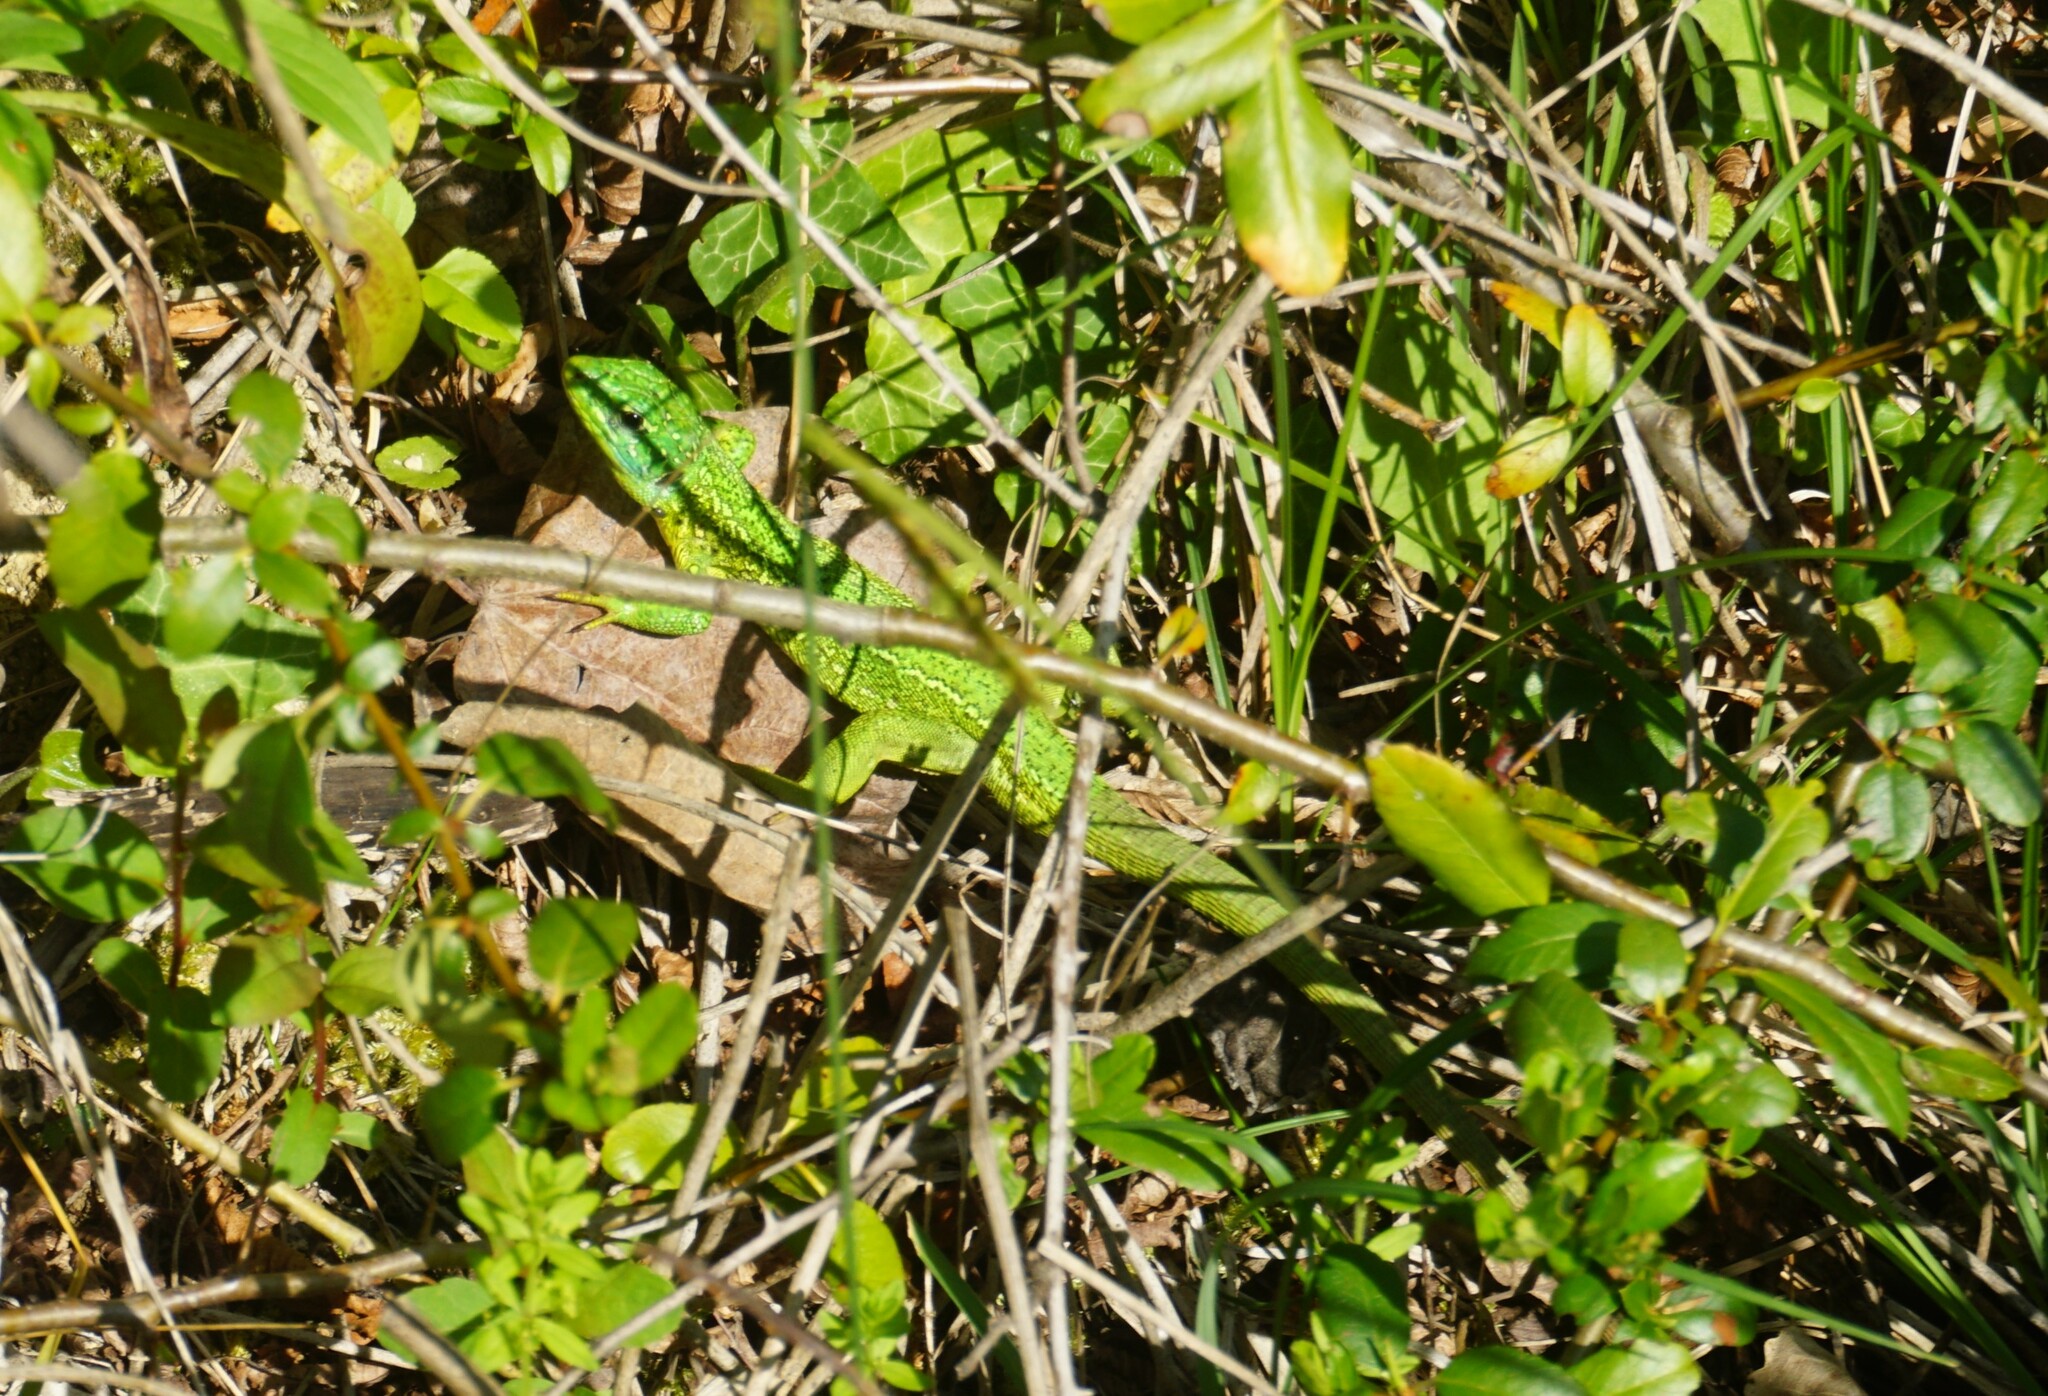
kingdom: Animalia
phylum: Chordata
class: Squamata
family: Lacertidae
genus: Lacerta
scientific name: Lacerta bilineata
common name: Western green lizard
